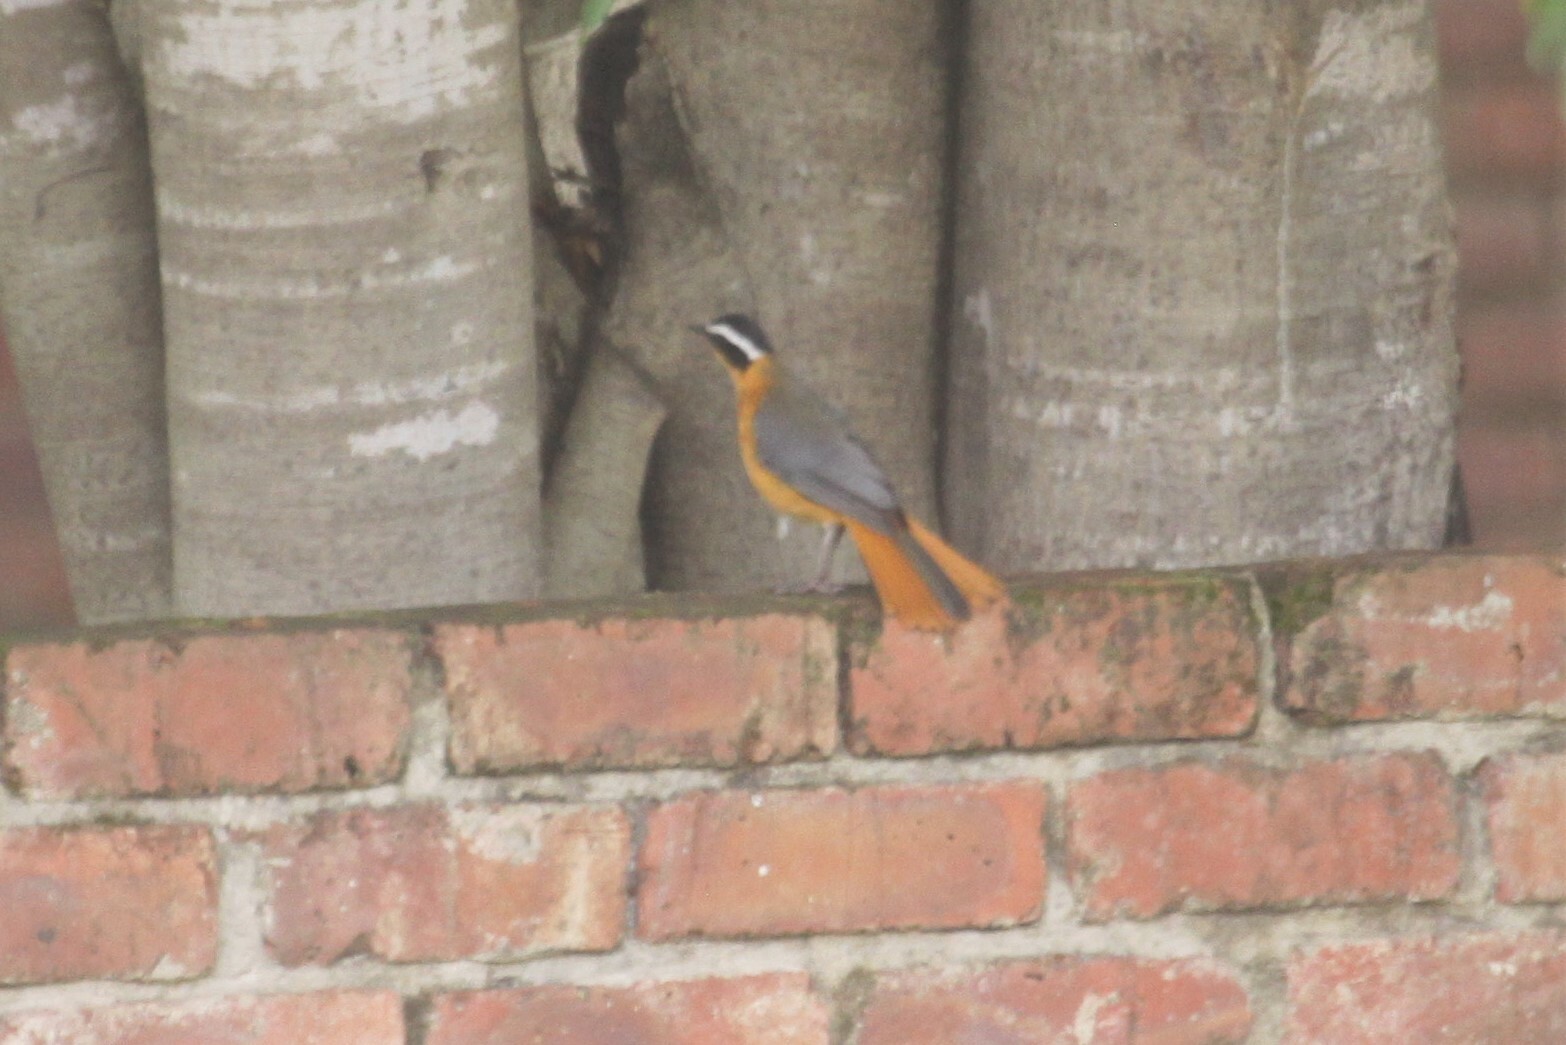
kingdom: Animalia
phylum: Chordata
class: Aves
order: Passeriformes
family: Muscicapidae
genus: Cossypha
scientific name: Cossypha heuglini
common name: White-browed robin-chat
